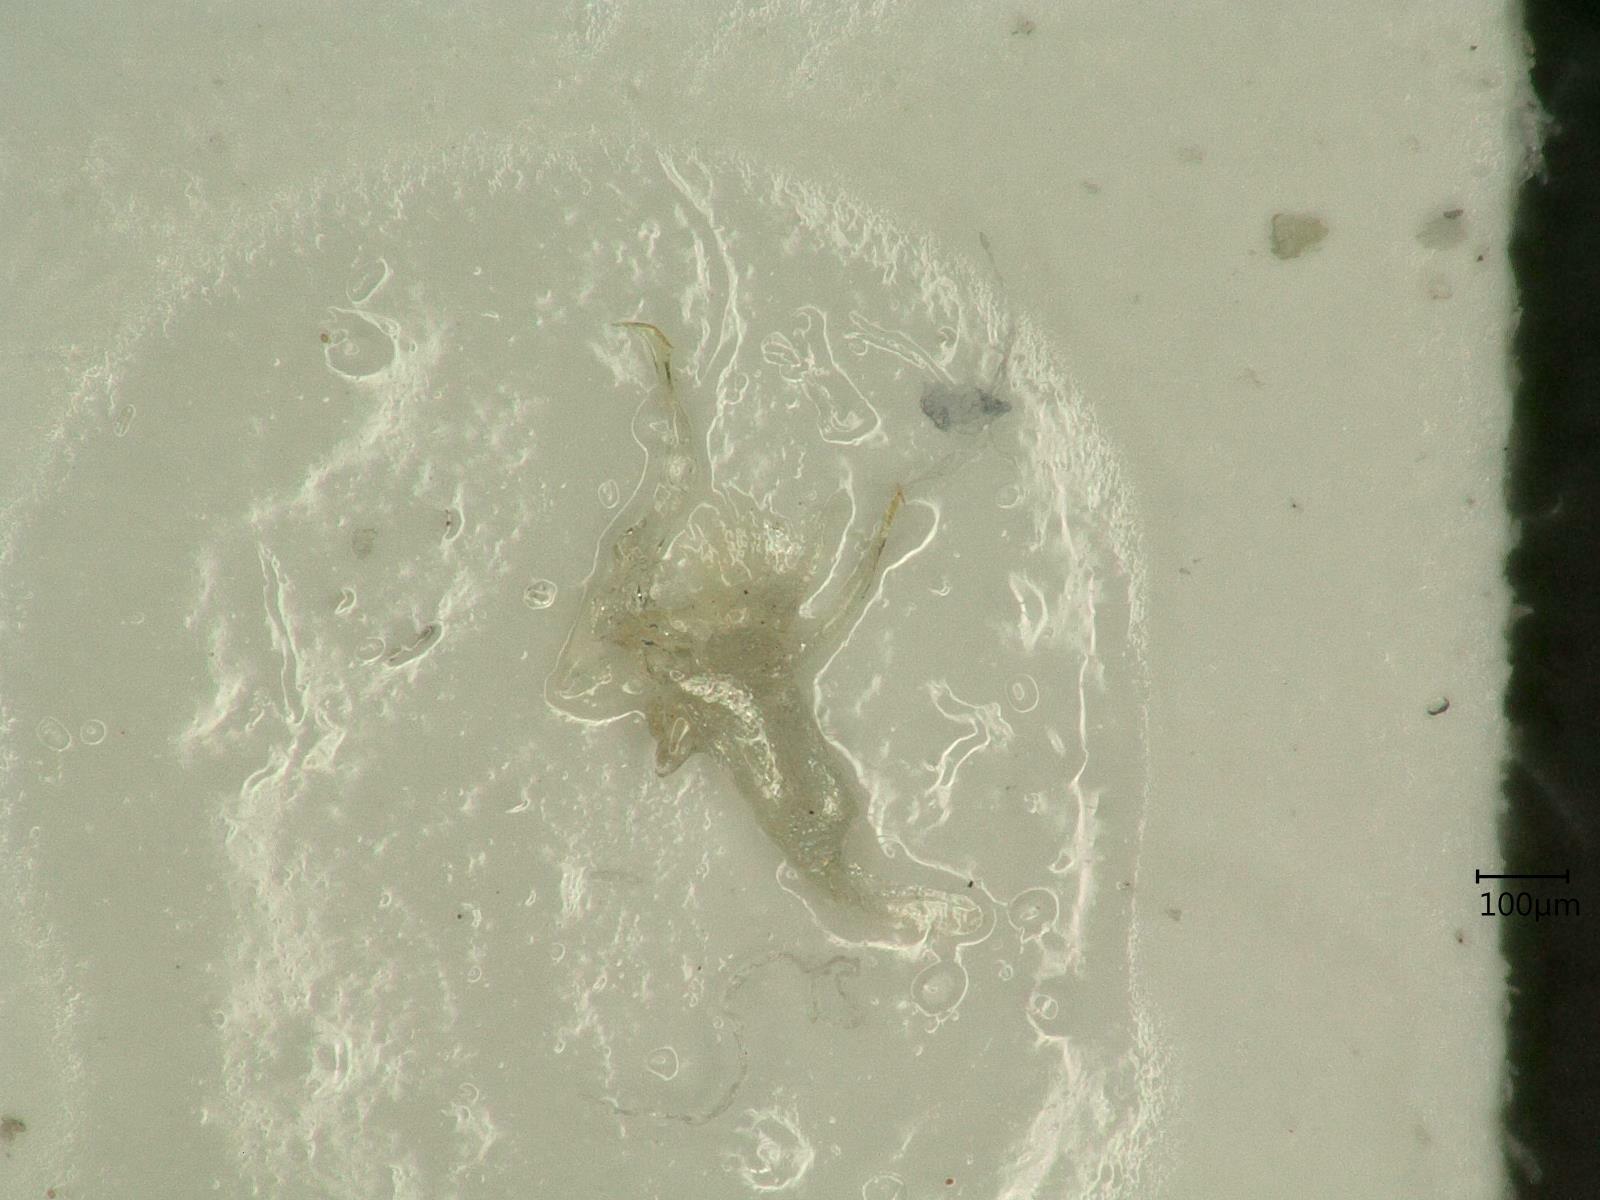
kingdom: Animalia
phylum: Arthropoda
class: Insecta
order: Hemiptera
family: Cicadellidae
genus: Ribautiana
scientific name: Ribautiana tenerrima
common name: Bramble leafhopper
